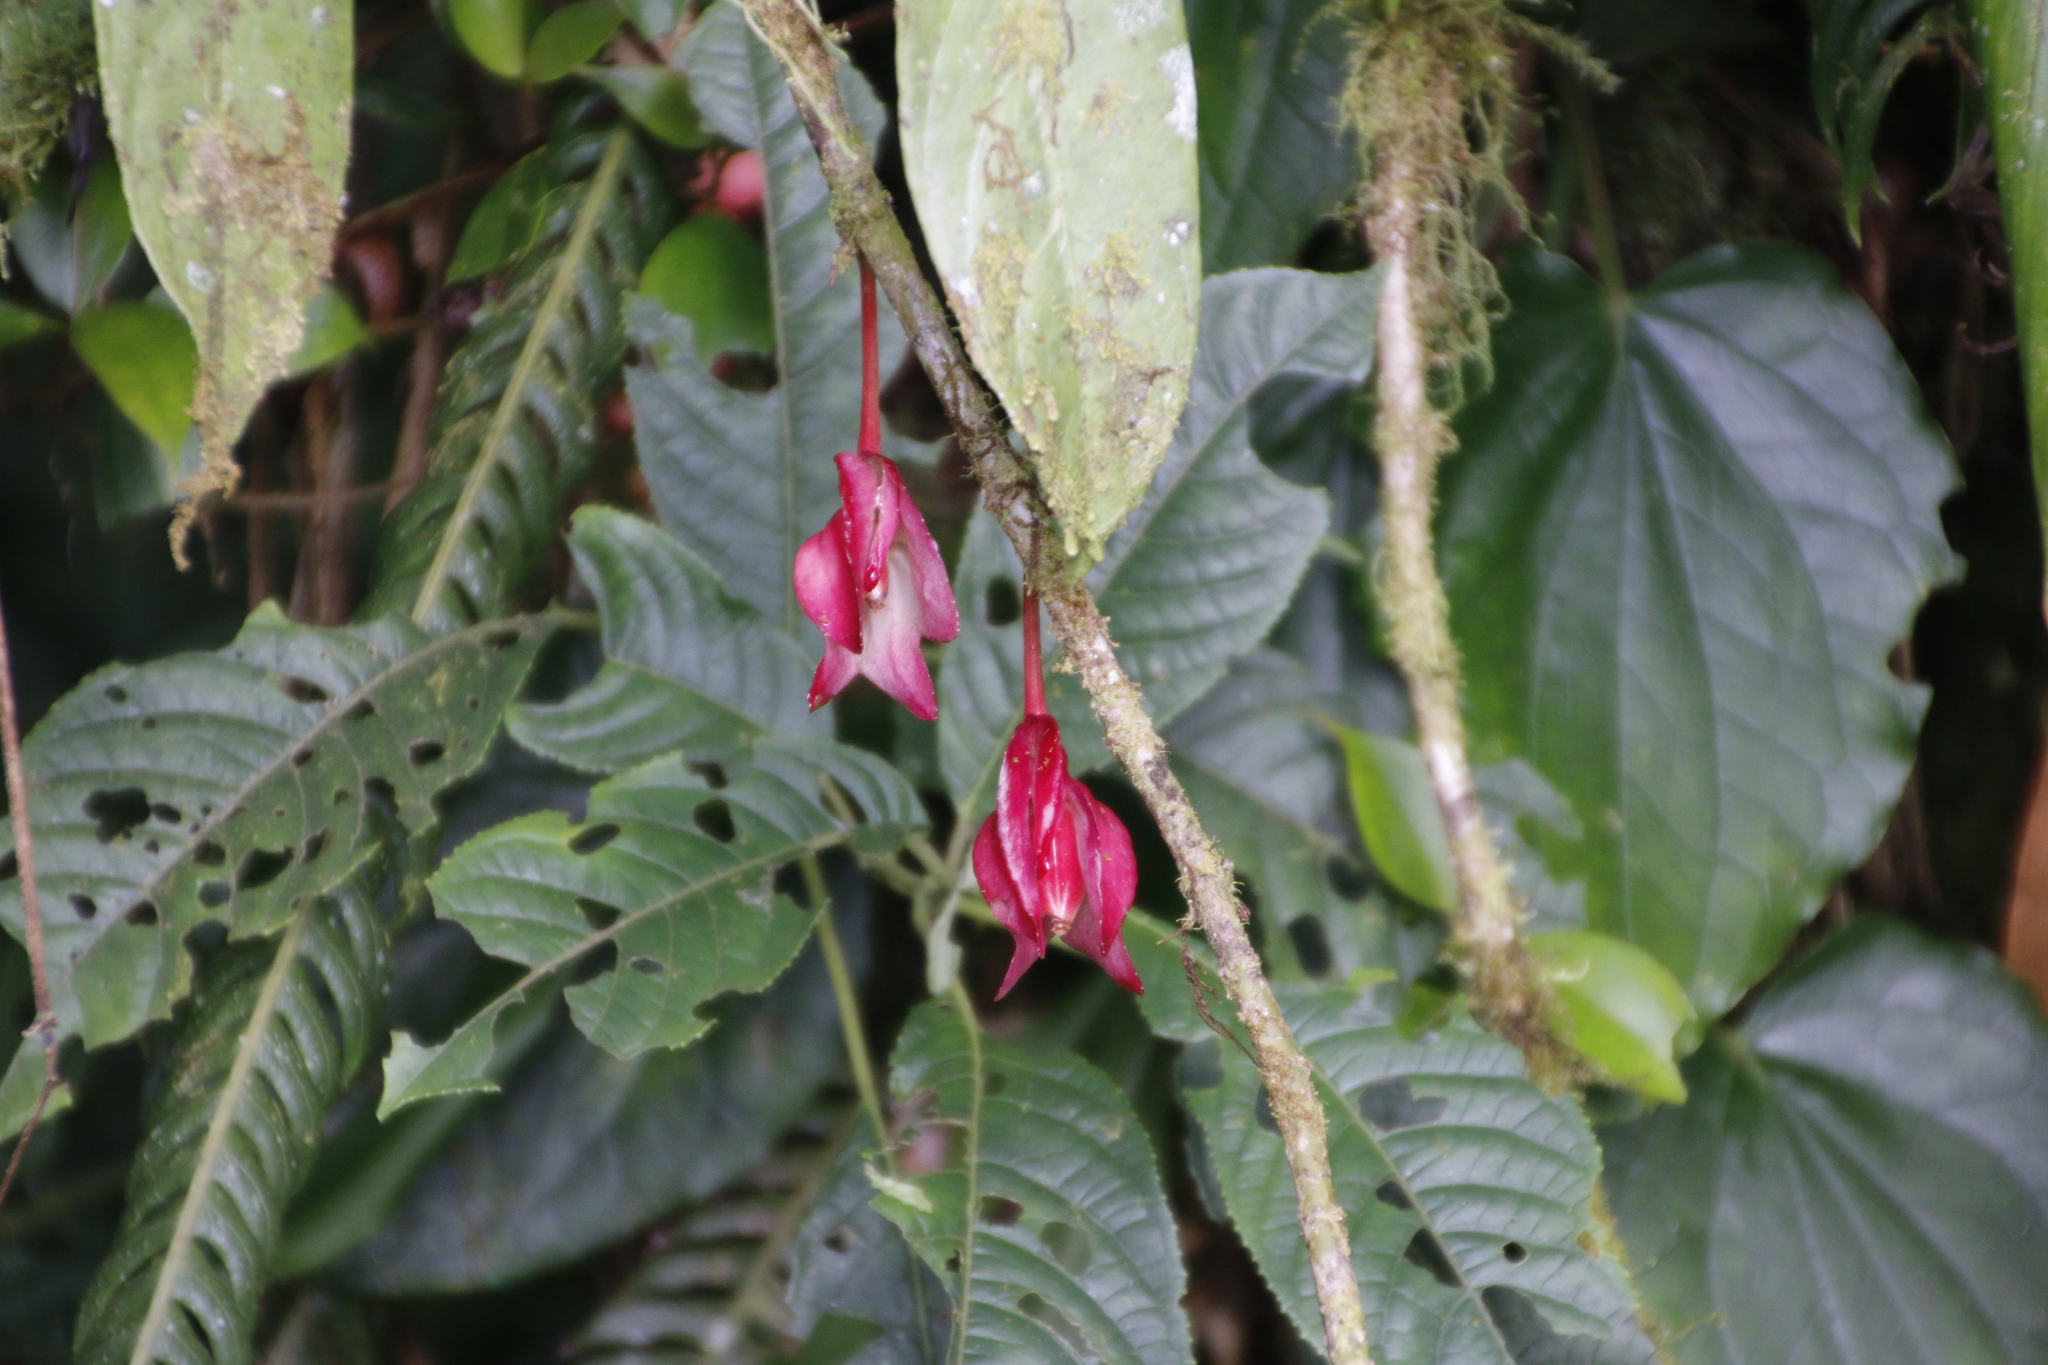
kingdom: Plantae
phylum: Tracheophyta
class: Magnoliopsida
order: Lamiales
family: Gesneriaceae
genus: Drymonia
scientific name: Drymonia conchocalyx
